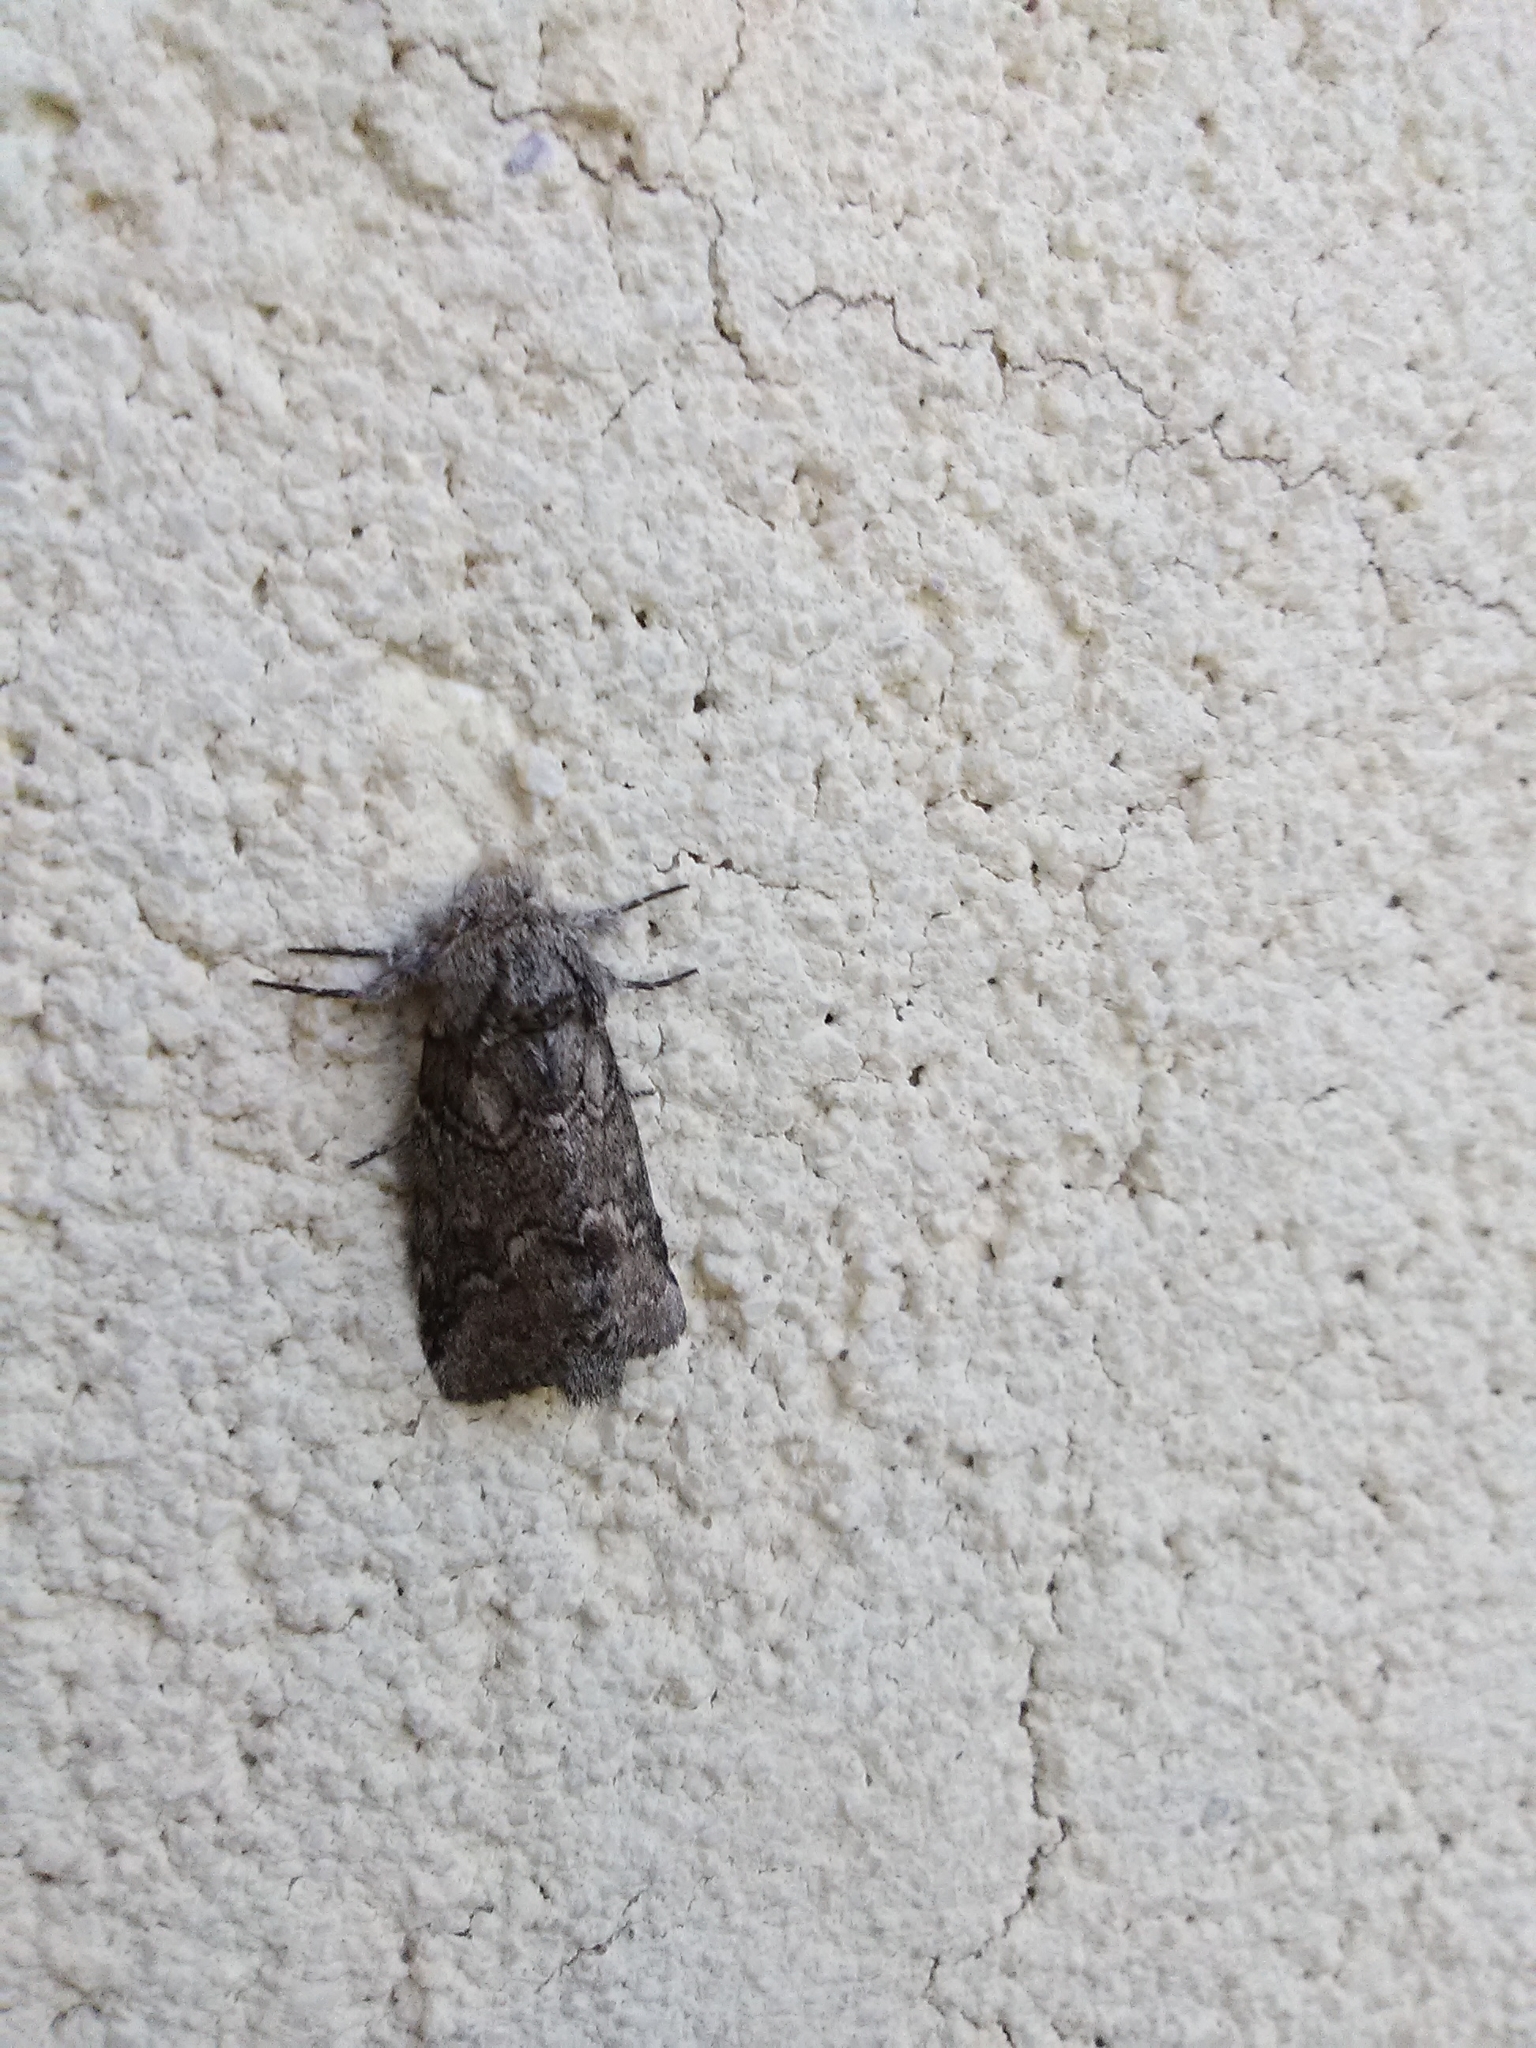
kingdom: Animalia
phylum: Arthropoda
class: Insecta
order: Lepidoptera
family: Notodontidae
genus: Lochmaeus
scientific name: Lochmaeus bilineata
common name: Double-lined prominent
